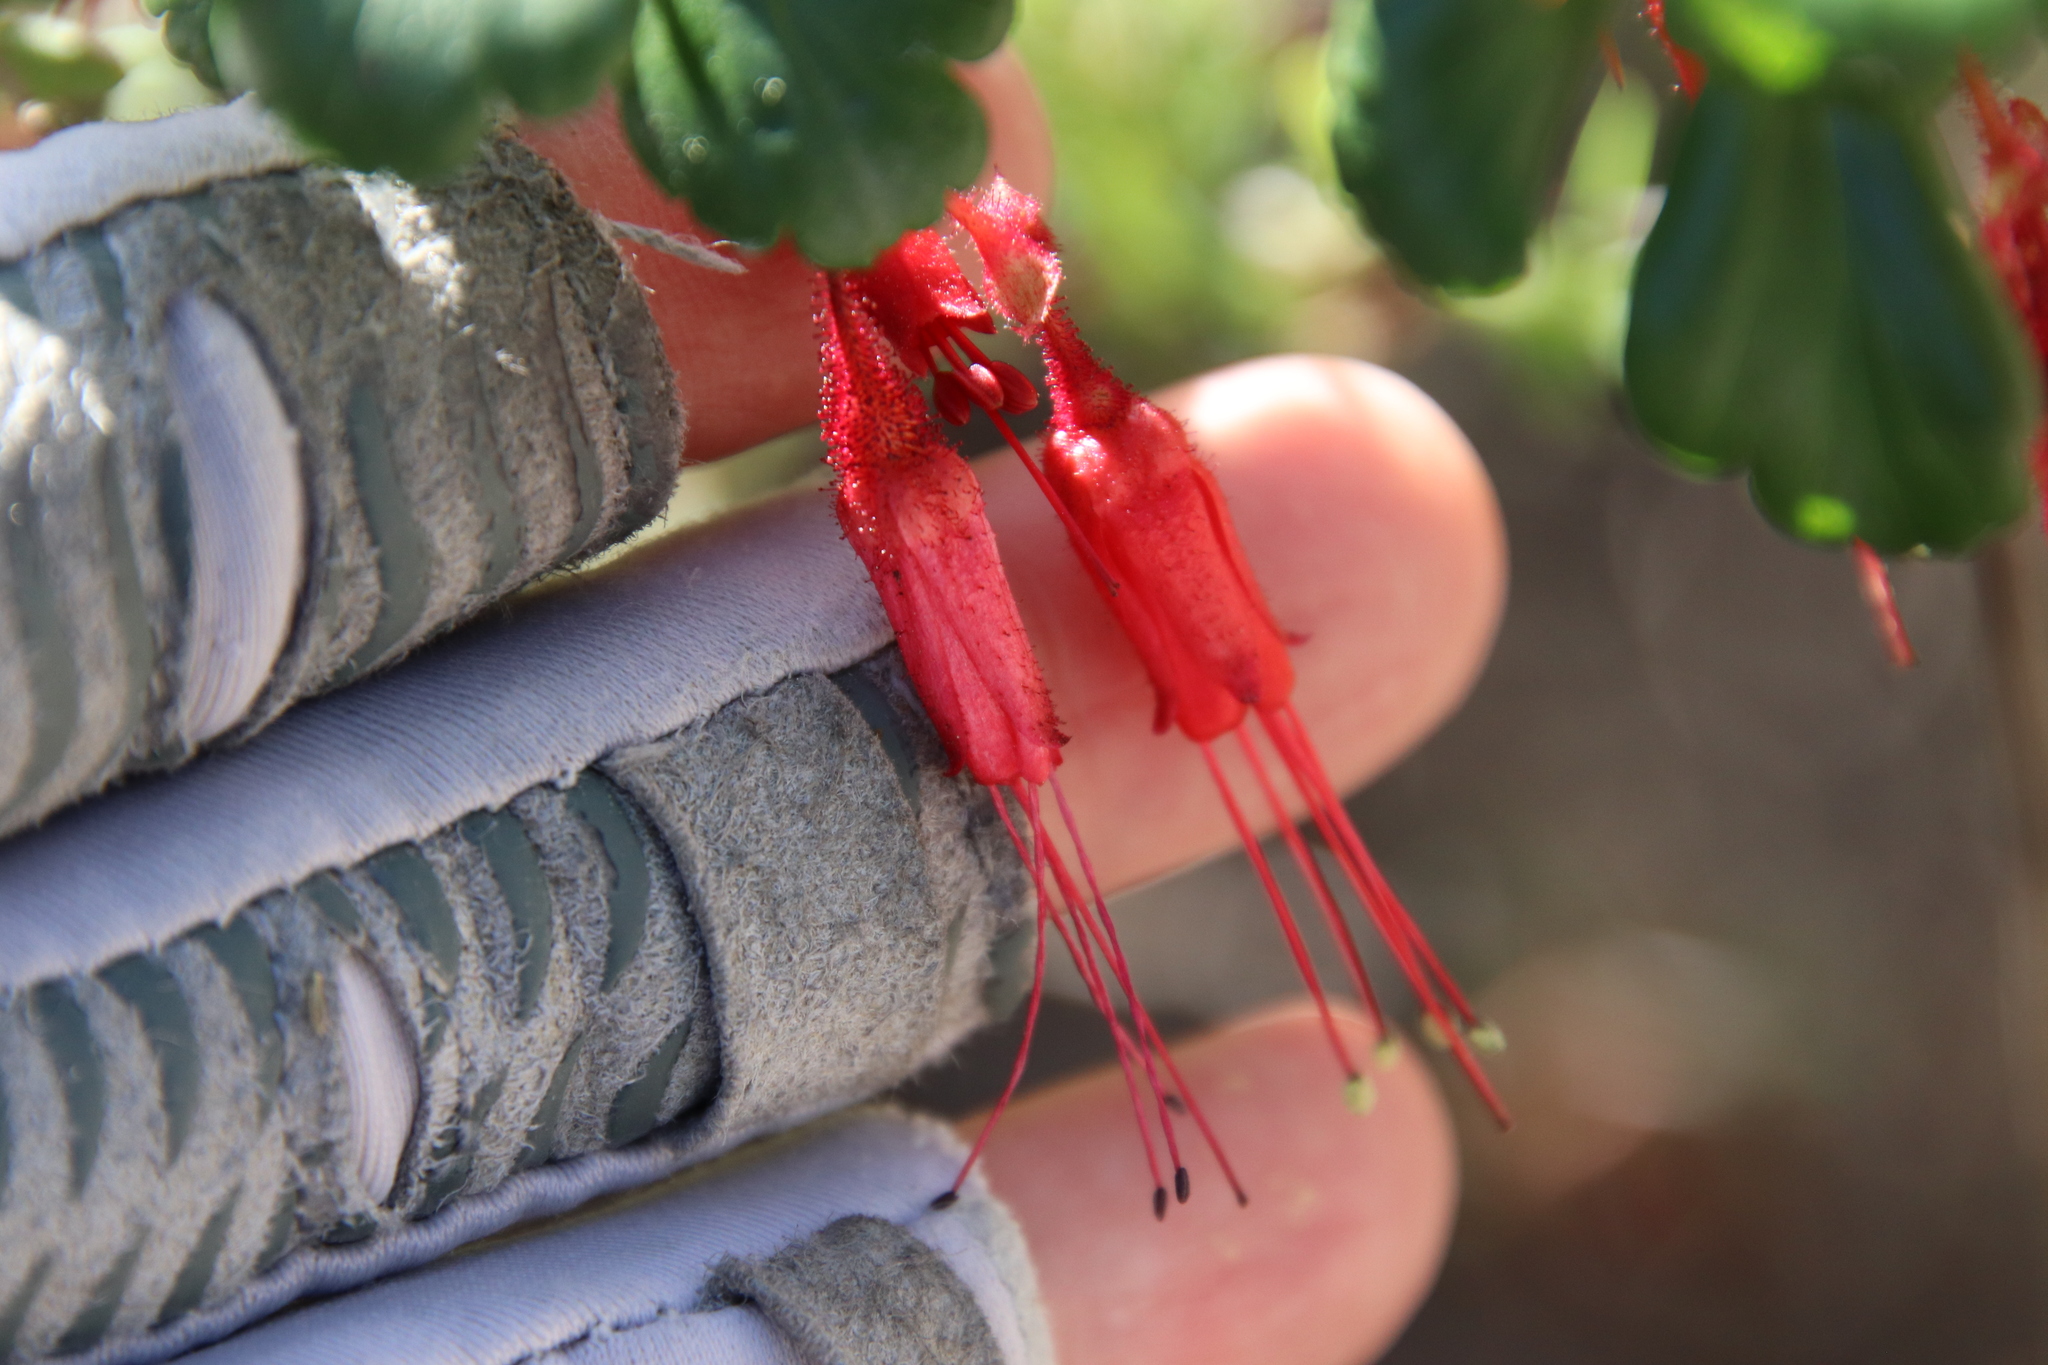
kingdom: Plantae
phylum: Tracheophyta
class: Magnoliopsida
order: Saxifragales
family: Grossulariaceae
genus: Ribes
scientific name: Ribes speciosum
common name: Fuchsia-flower gooseberry
